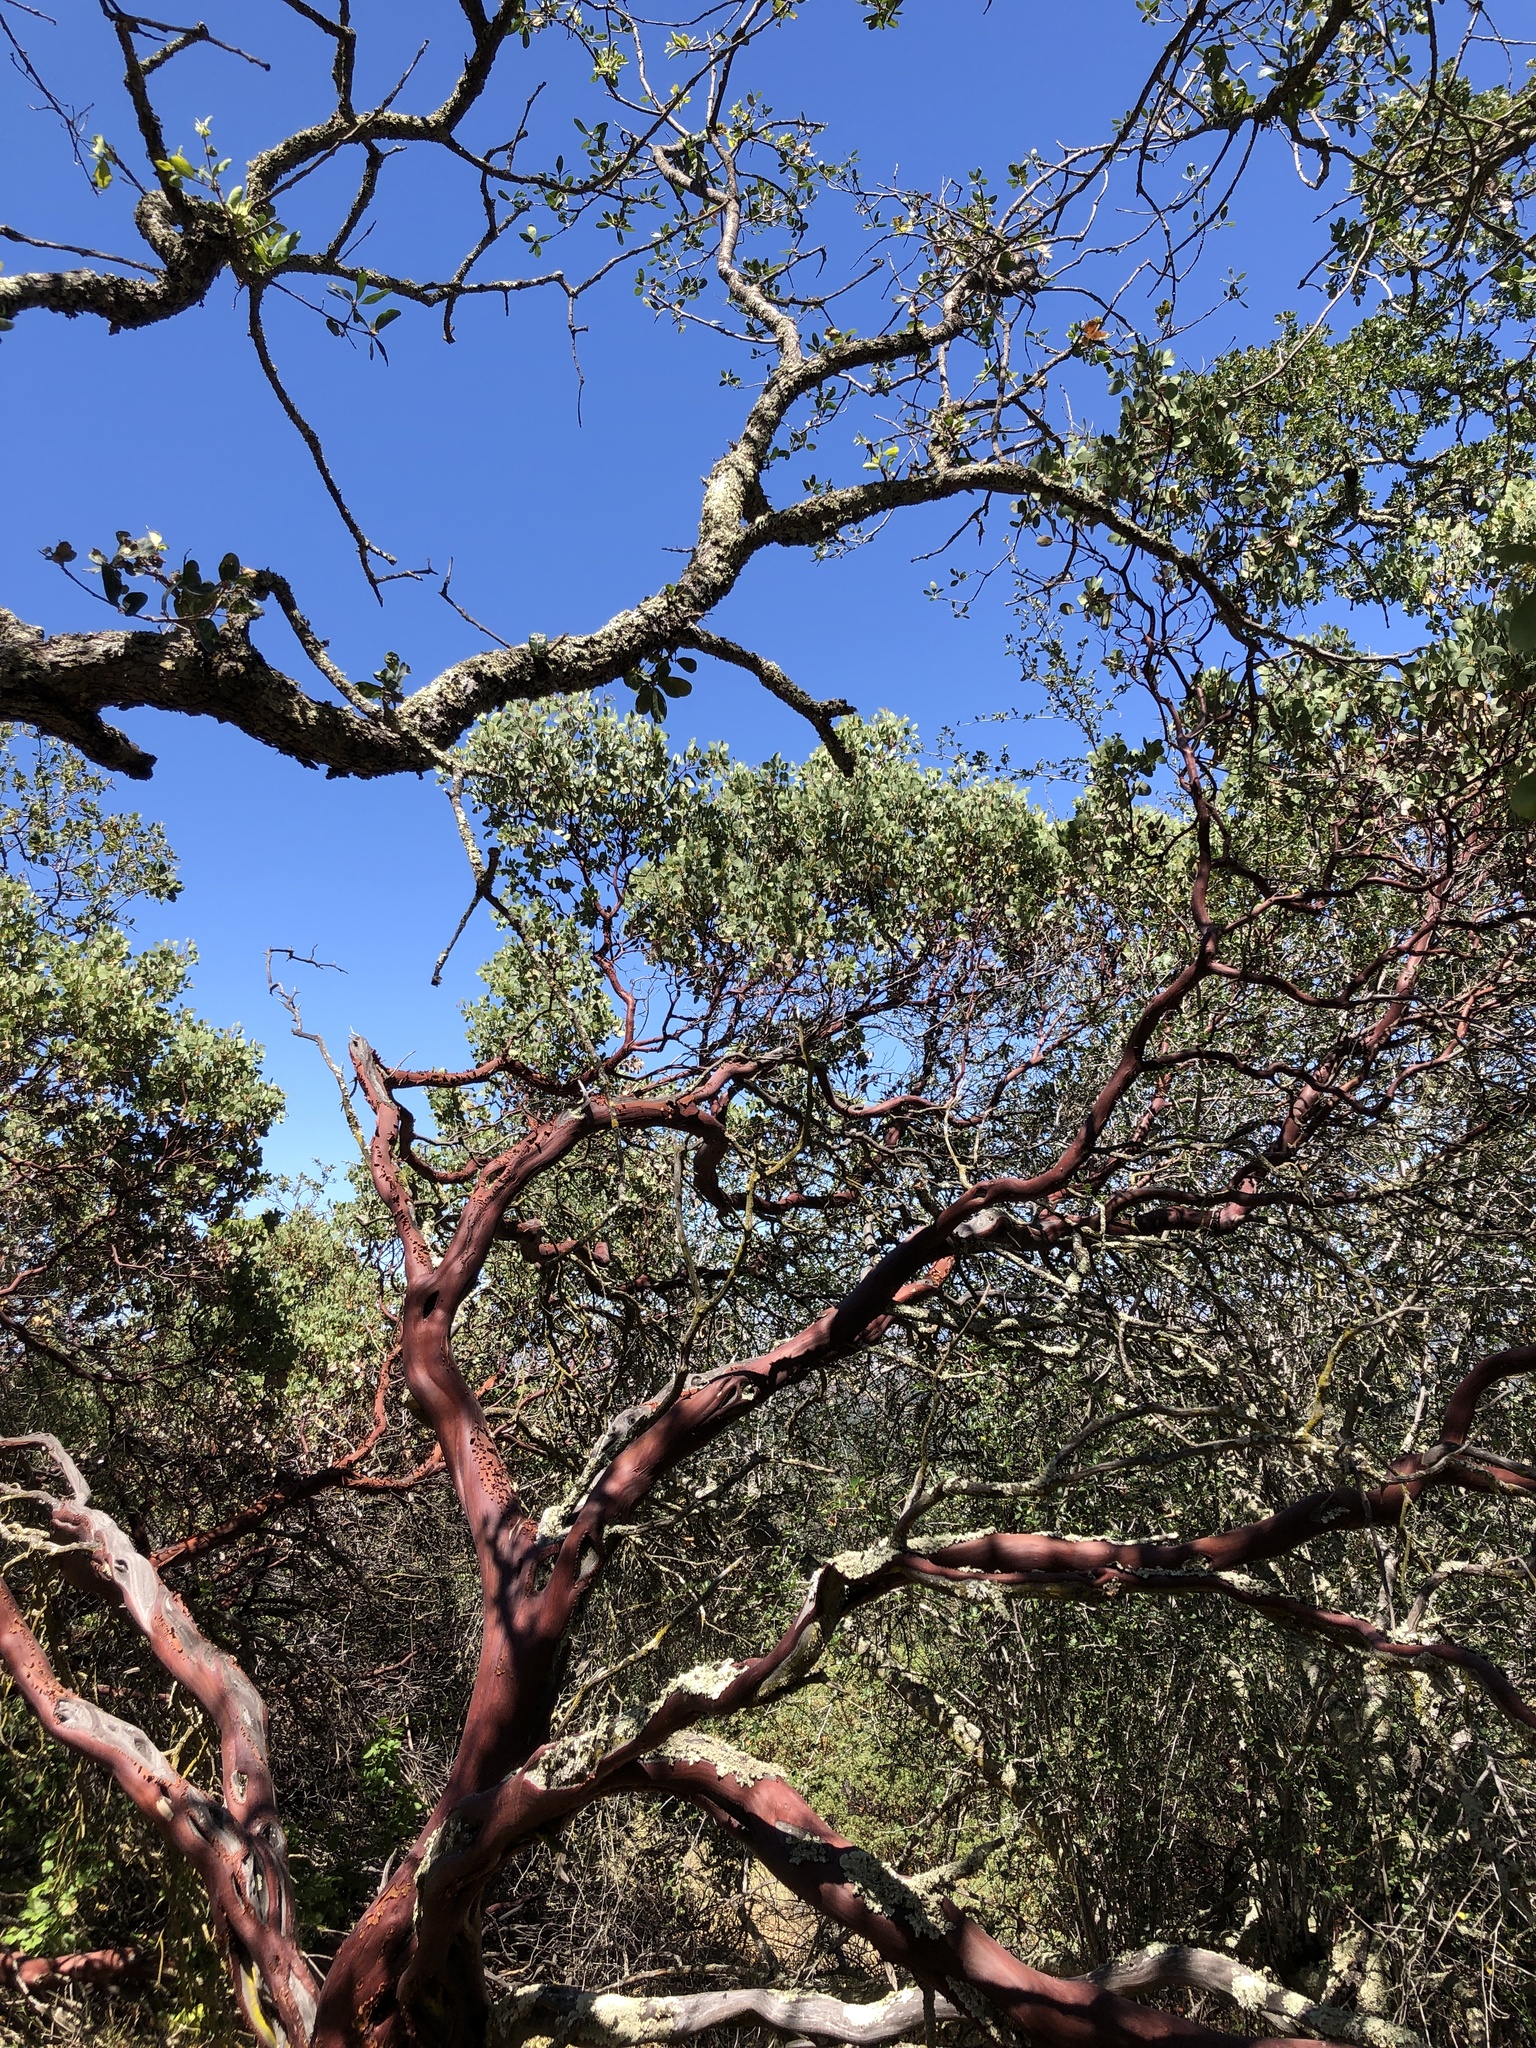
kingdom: Plantae
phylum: Tracheophyta
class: Magnoliopsida
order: Ericales
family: Ericaceae
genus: Arctostaphylos
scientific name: Arctostaphylos glauca
